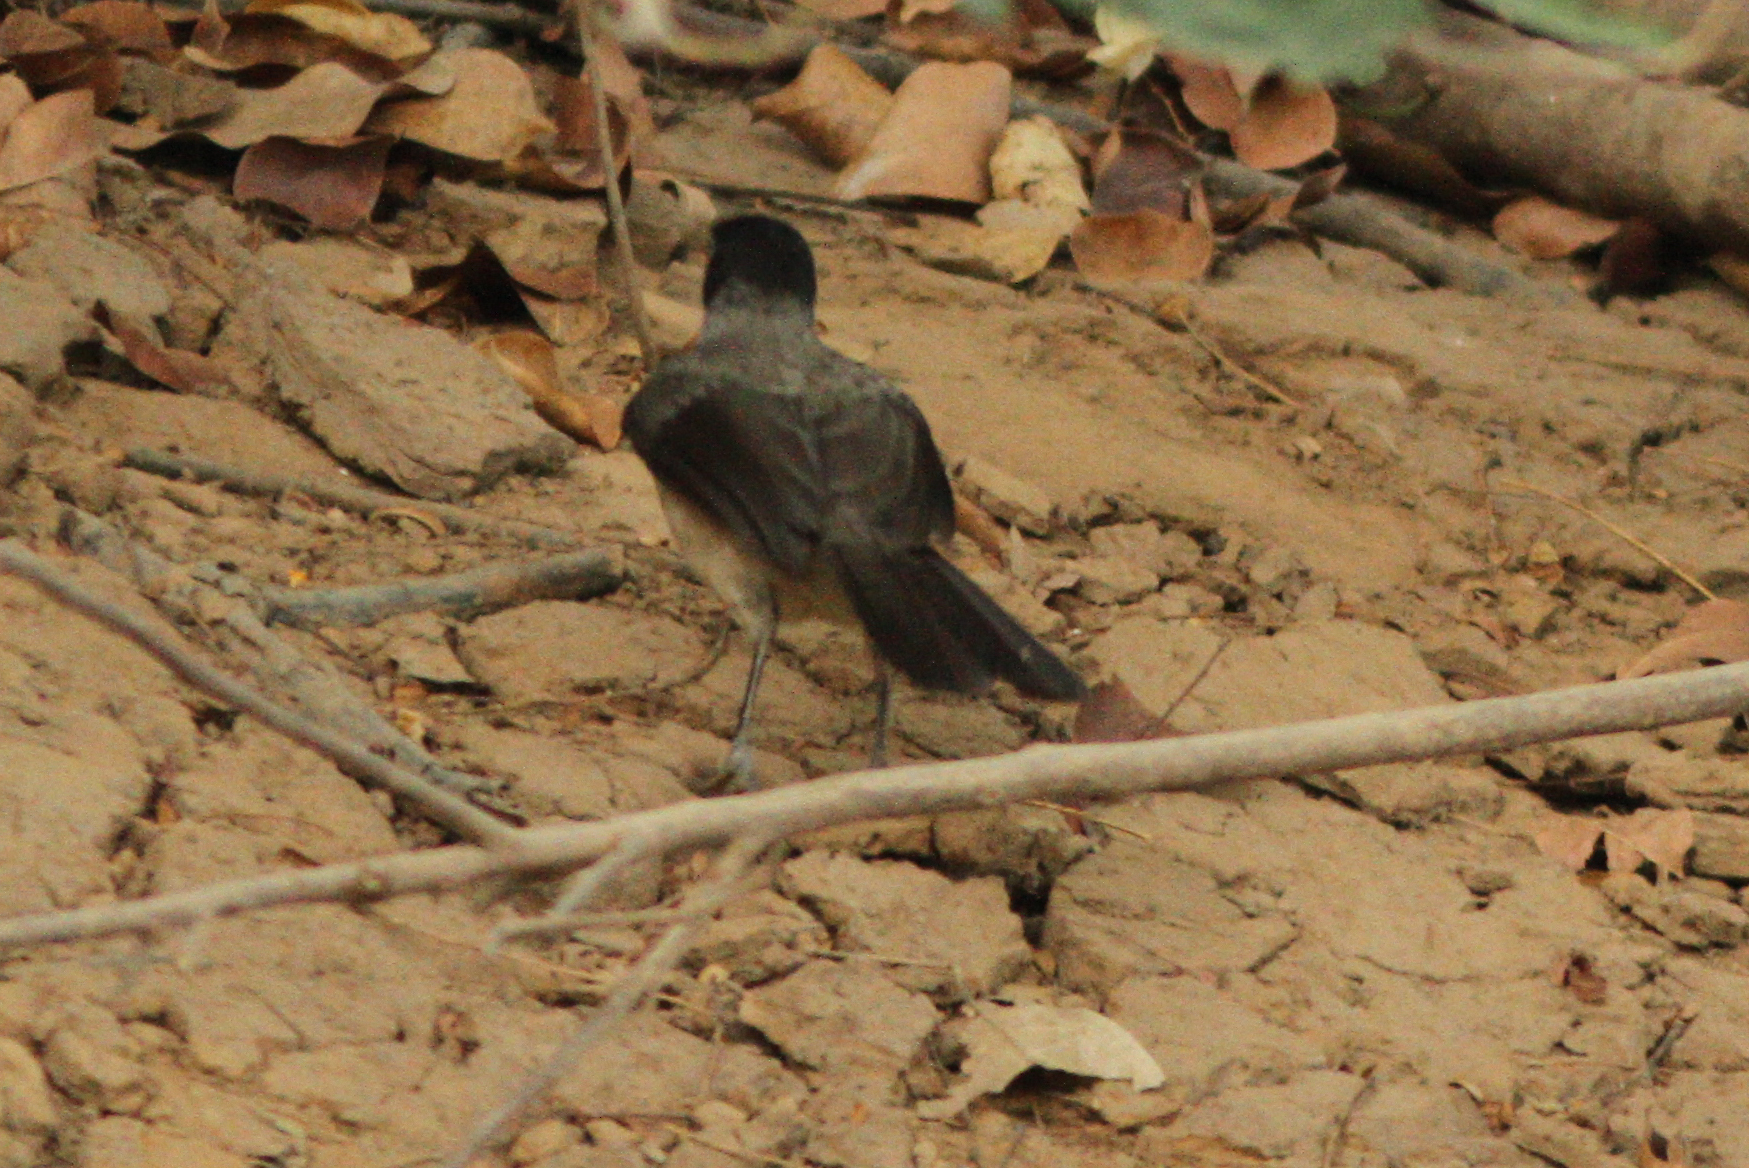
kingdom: Animalia
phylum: Chordata
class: Aves
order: Passeriformes
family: Pycnonotidae
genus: Pycnonotus
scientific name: Pycnonotus barbatus
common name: Common bulbul
